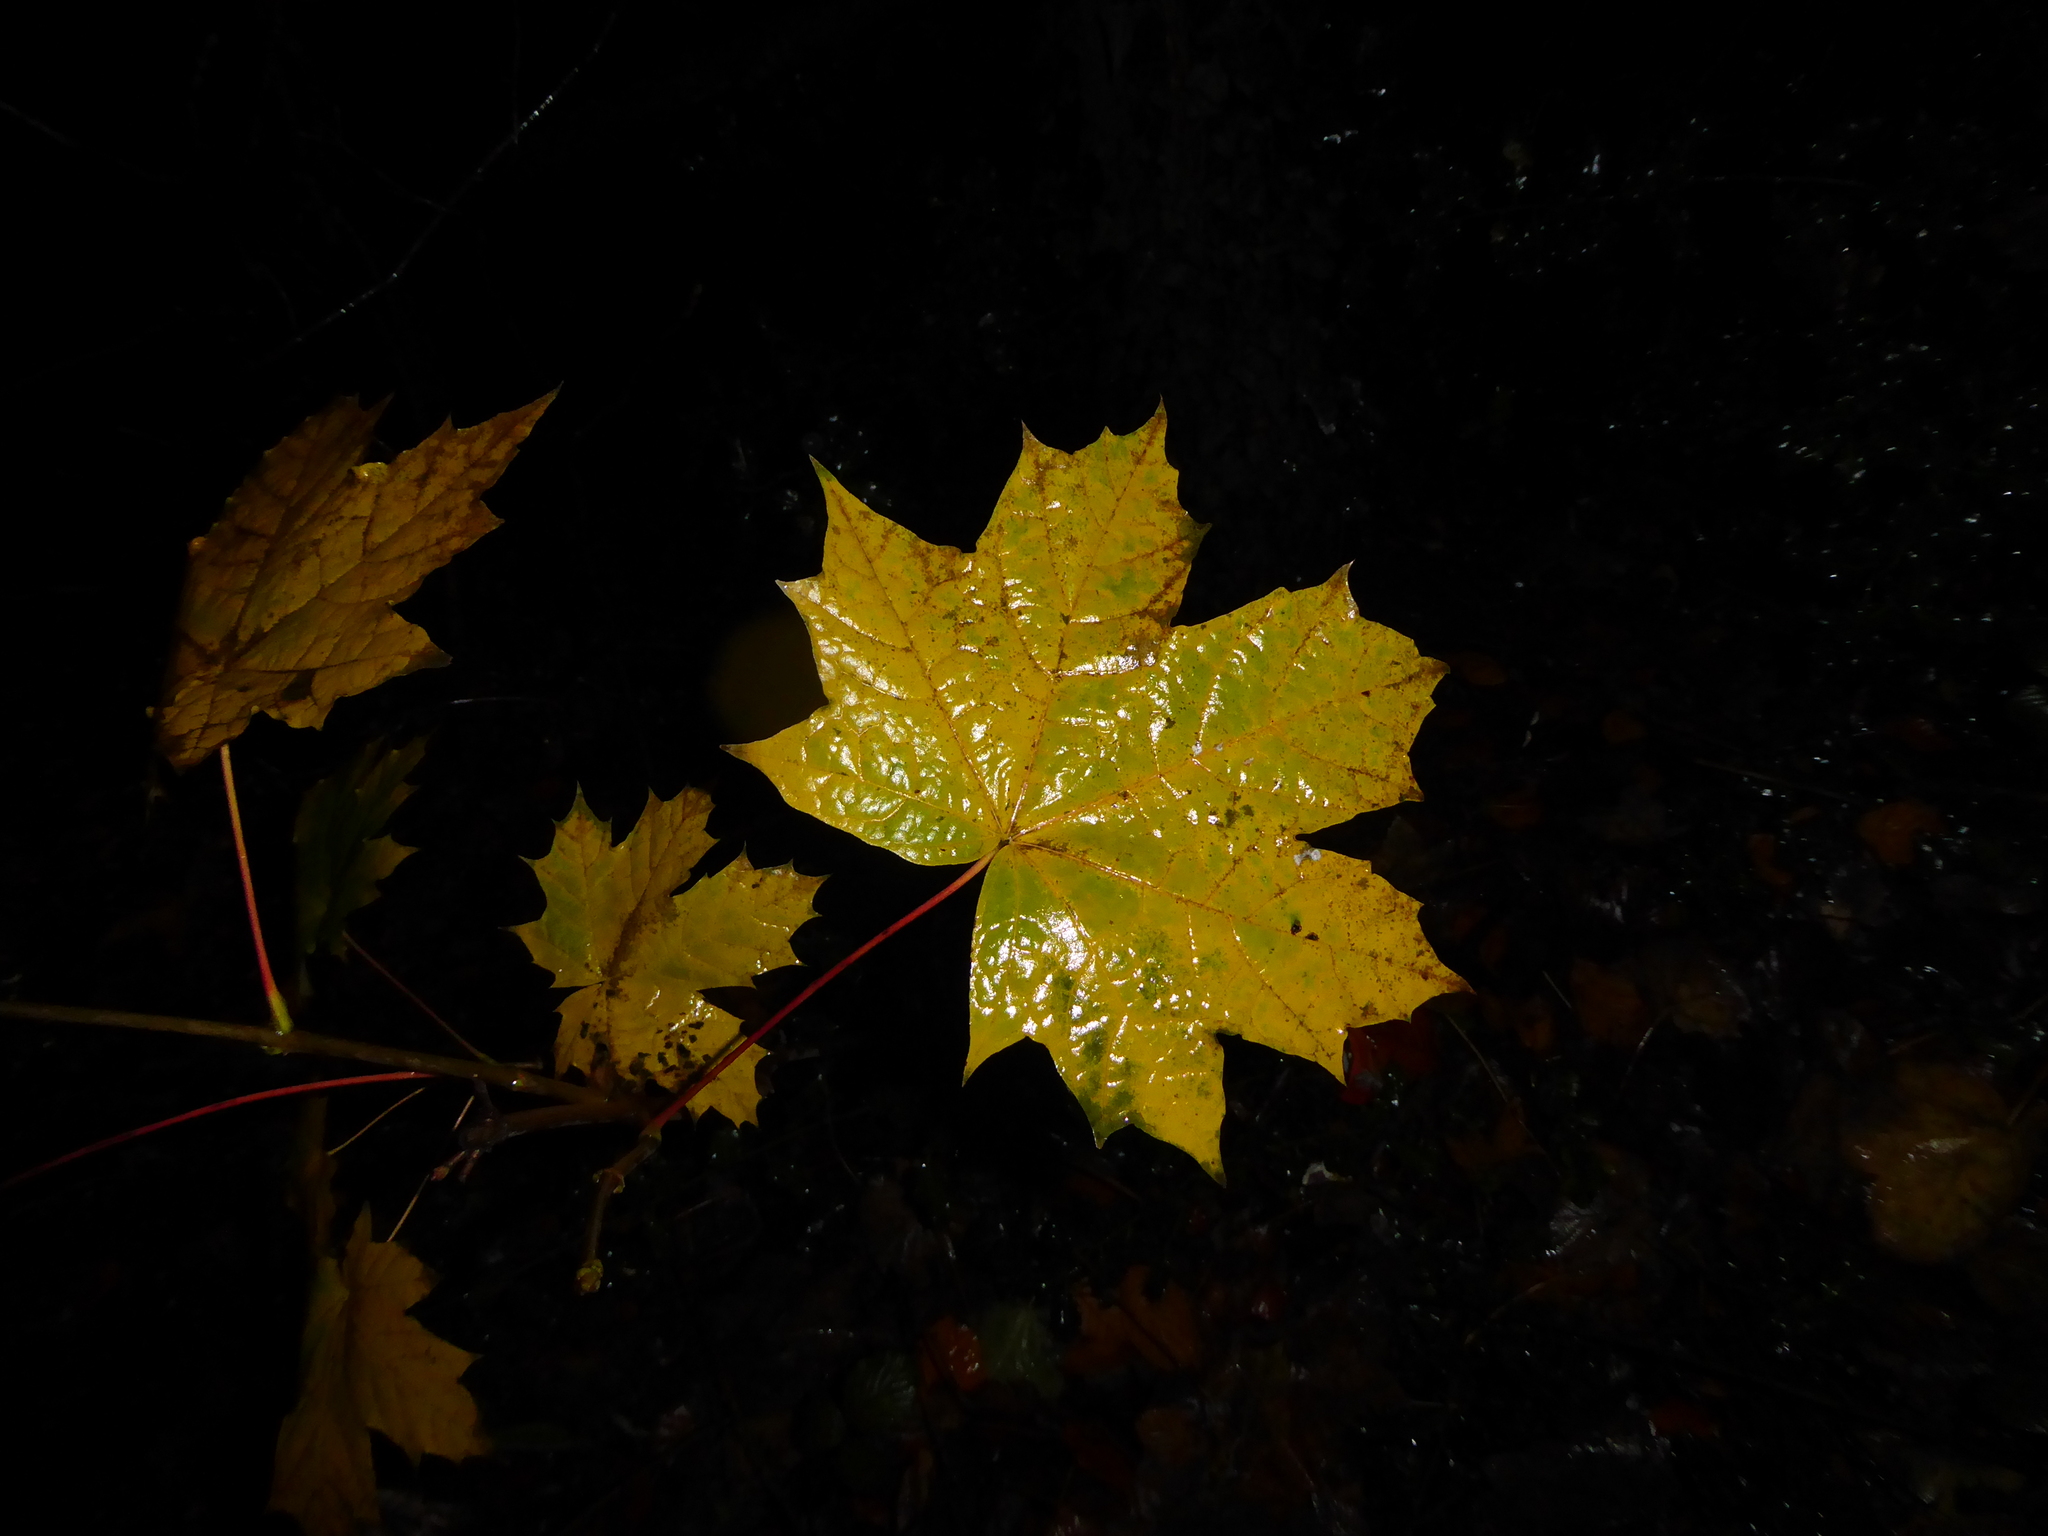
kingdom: Plantae
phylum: Tracheophyta
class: Magnoliopsida
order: Sapindales
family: Sapindaceae
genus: Acer
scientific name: Acer platanoides
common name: Norway maple
